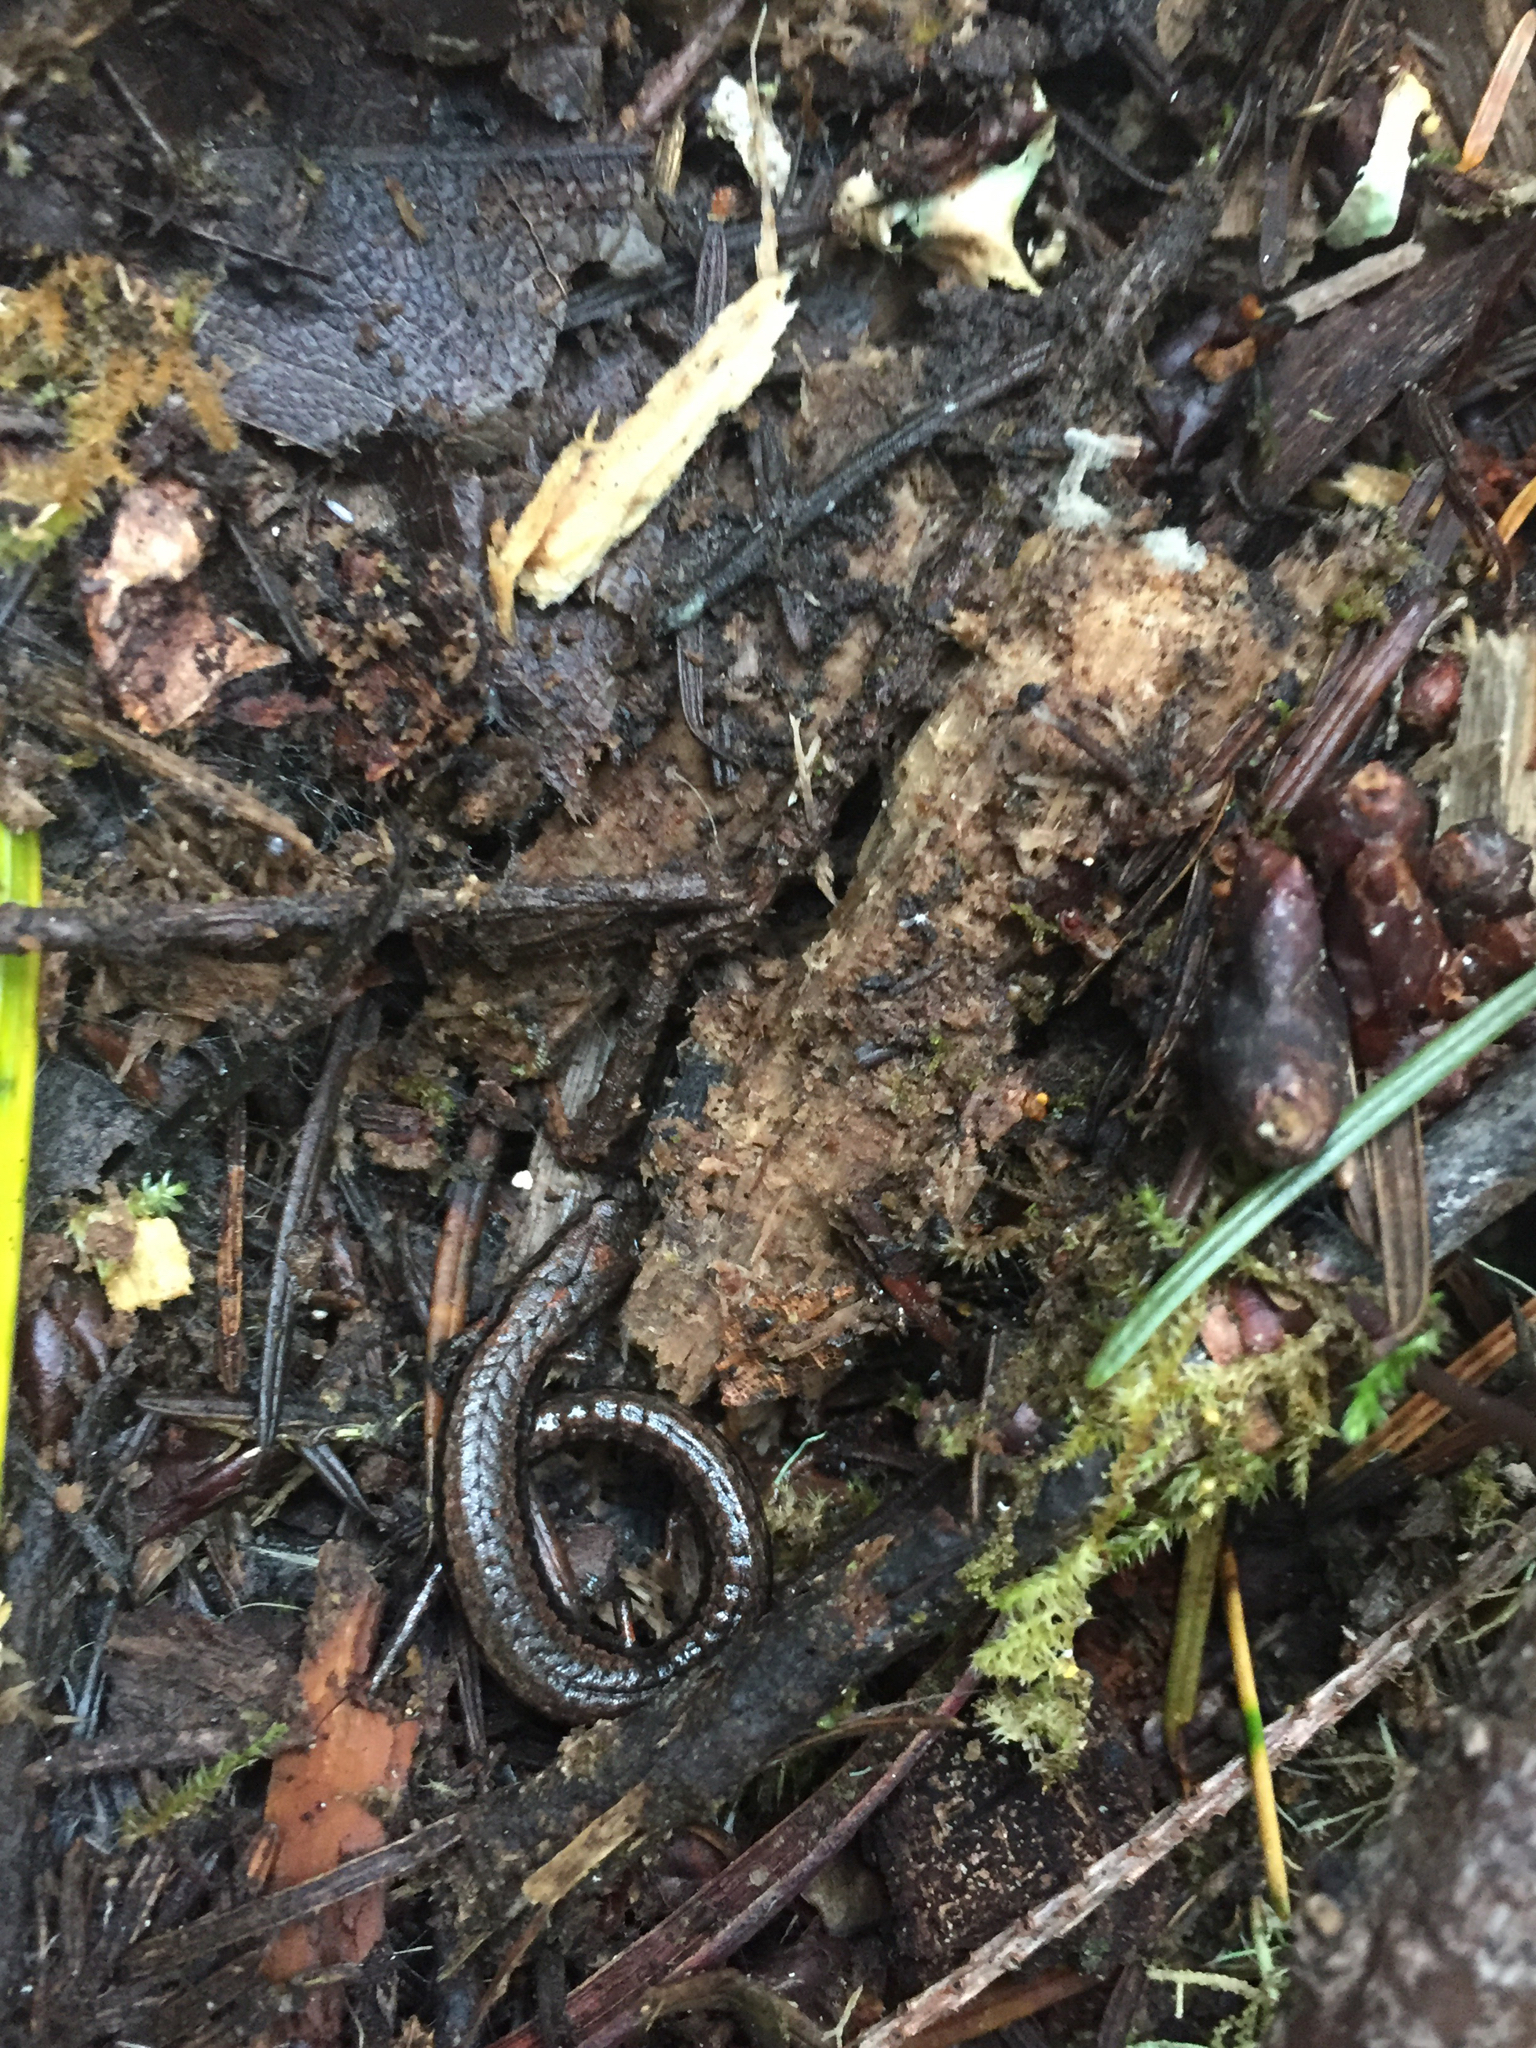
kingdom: Animalia
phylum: Chordata
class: Amphibia
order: Caudata
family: Plethodontidae
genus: Batrachoseps
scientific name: Batrachoseps attenuatus
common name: California slender salamander
